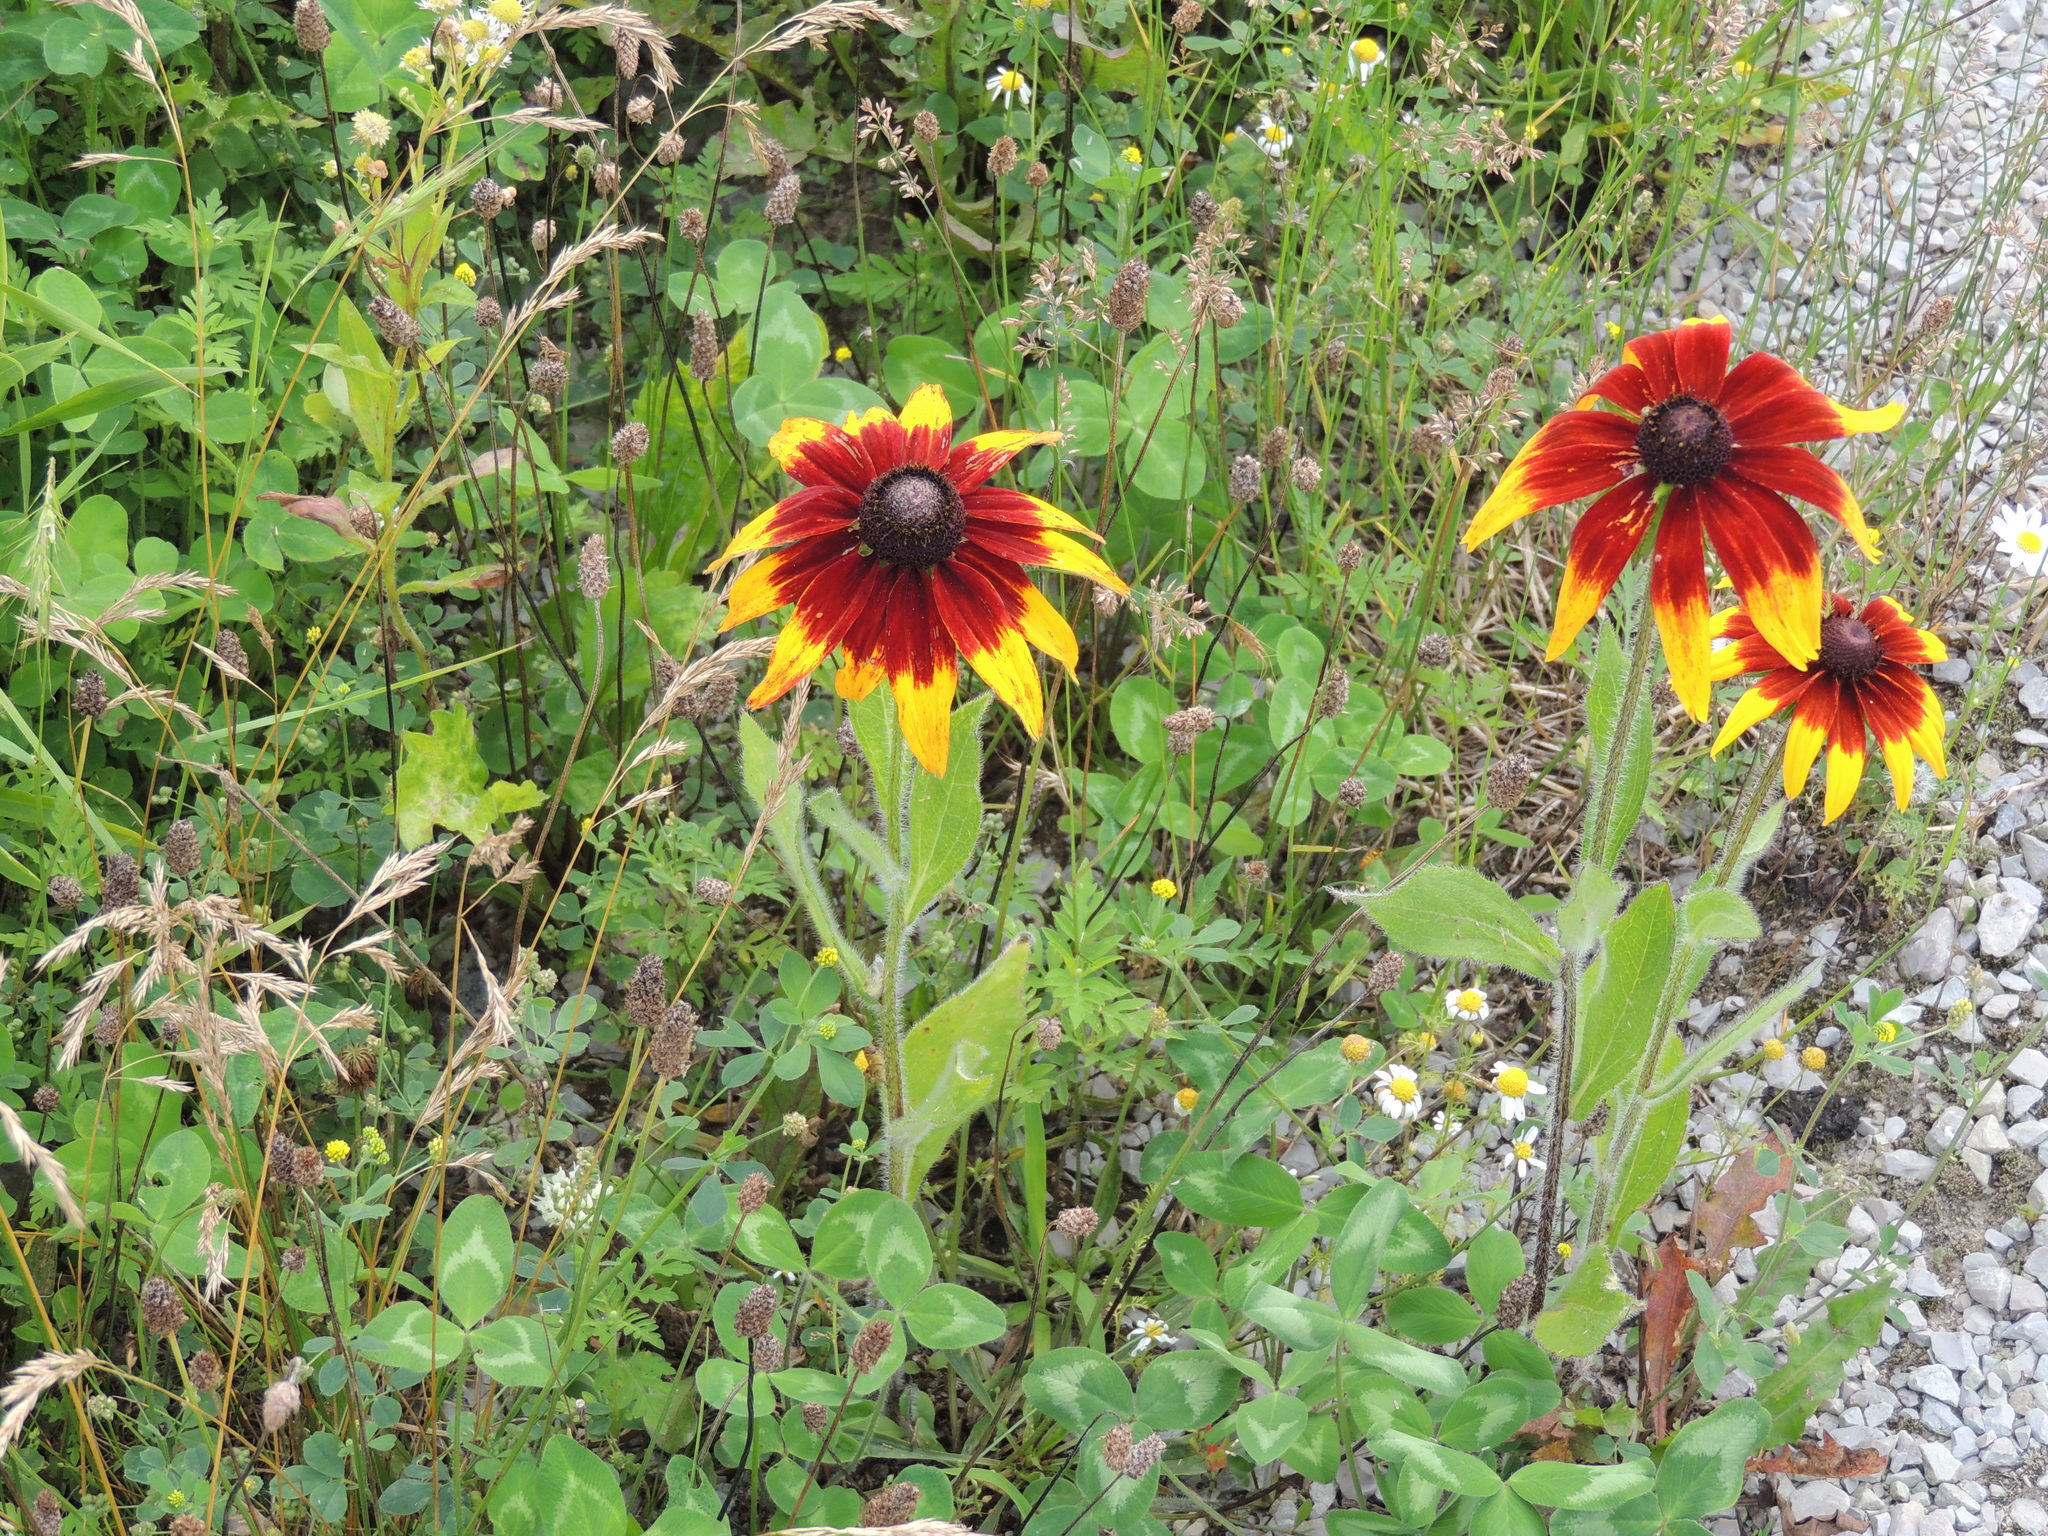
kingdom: Plantae
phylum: Tracheophyta
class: Magnoliopsida
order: Asterales
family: Asteraceae
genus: Rudbeckia
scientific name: Rudbeckia hirta
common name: Black-eyed-susan
